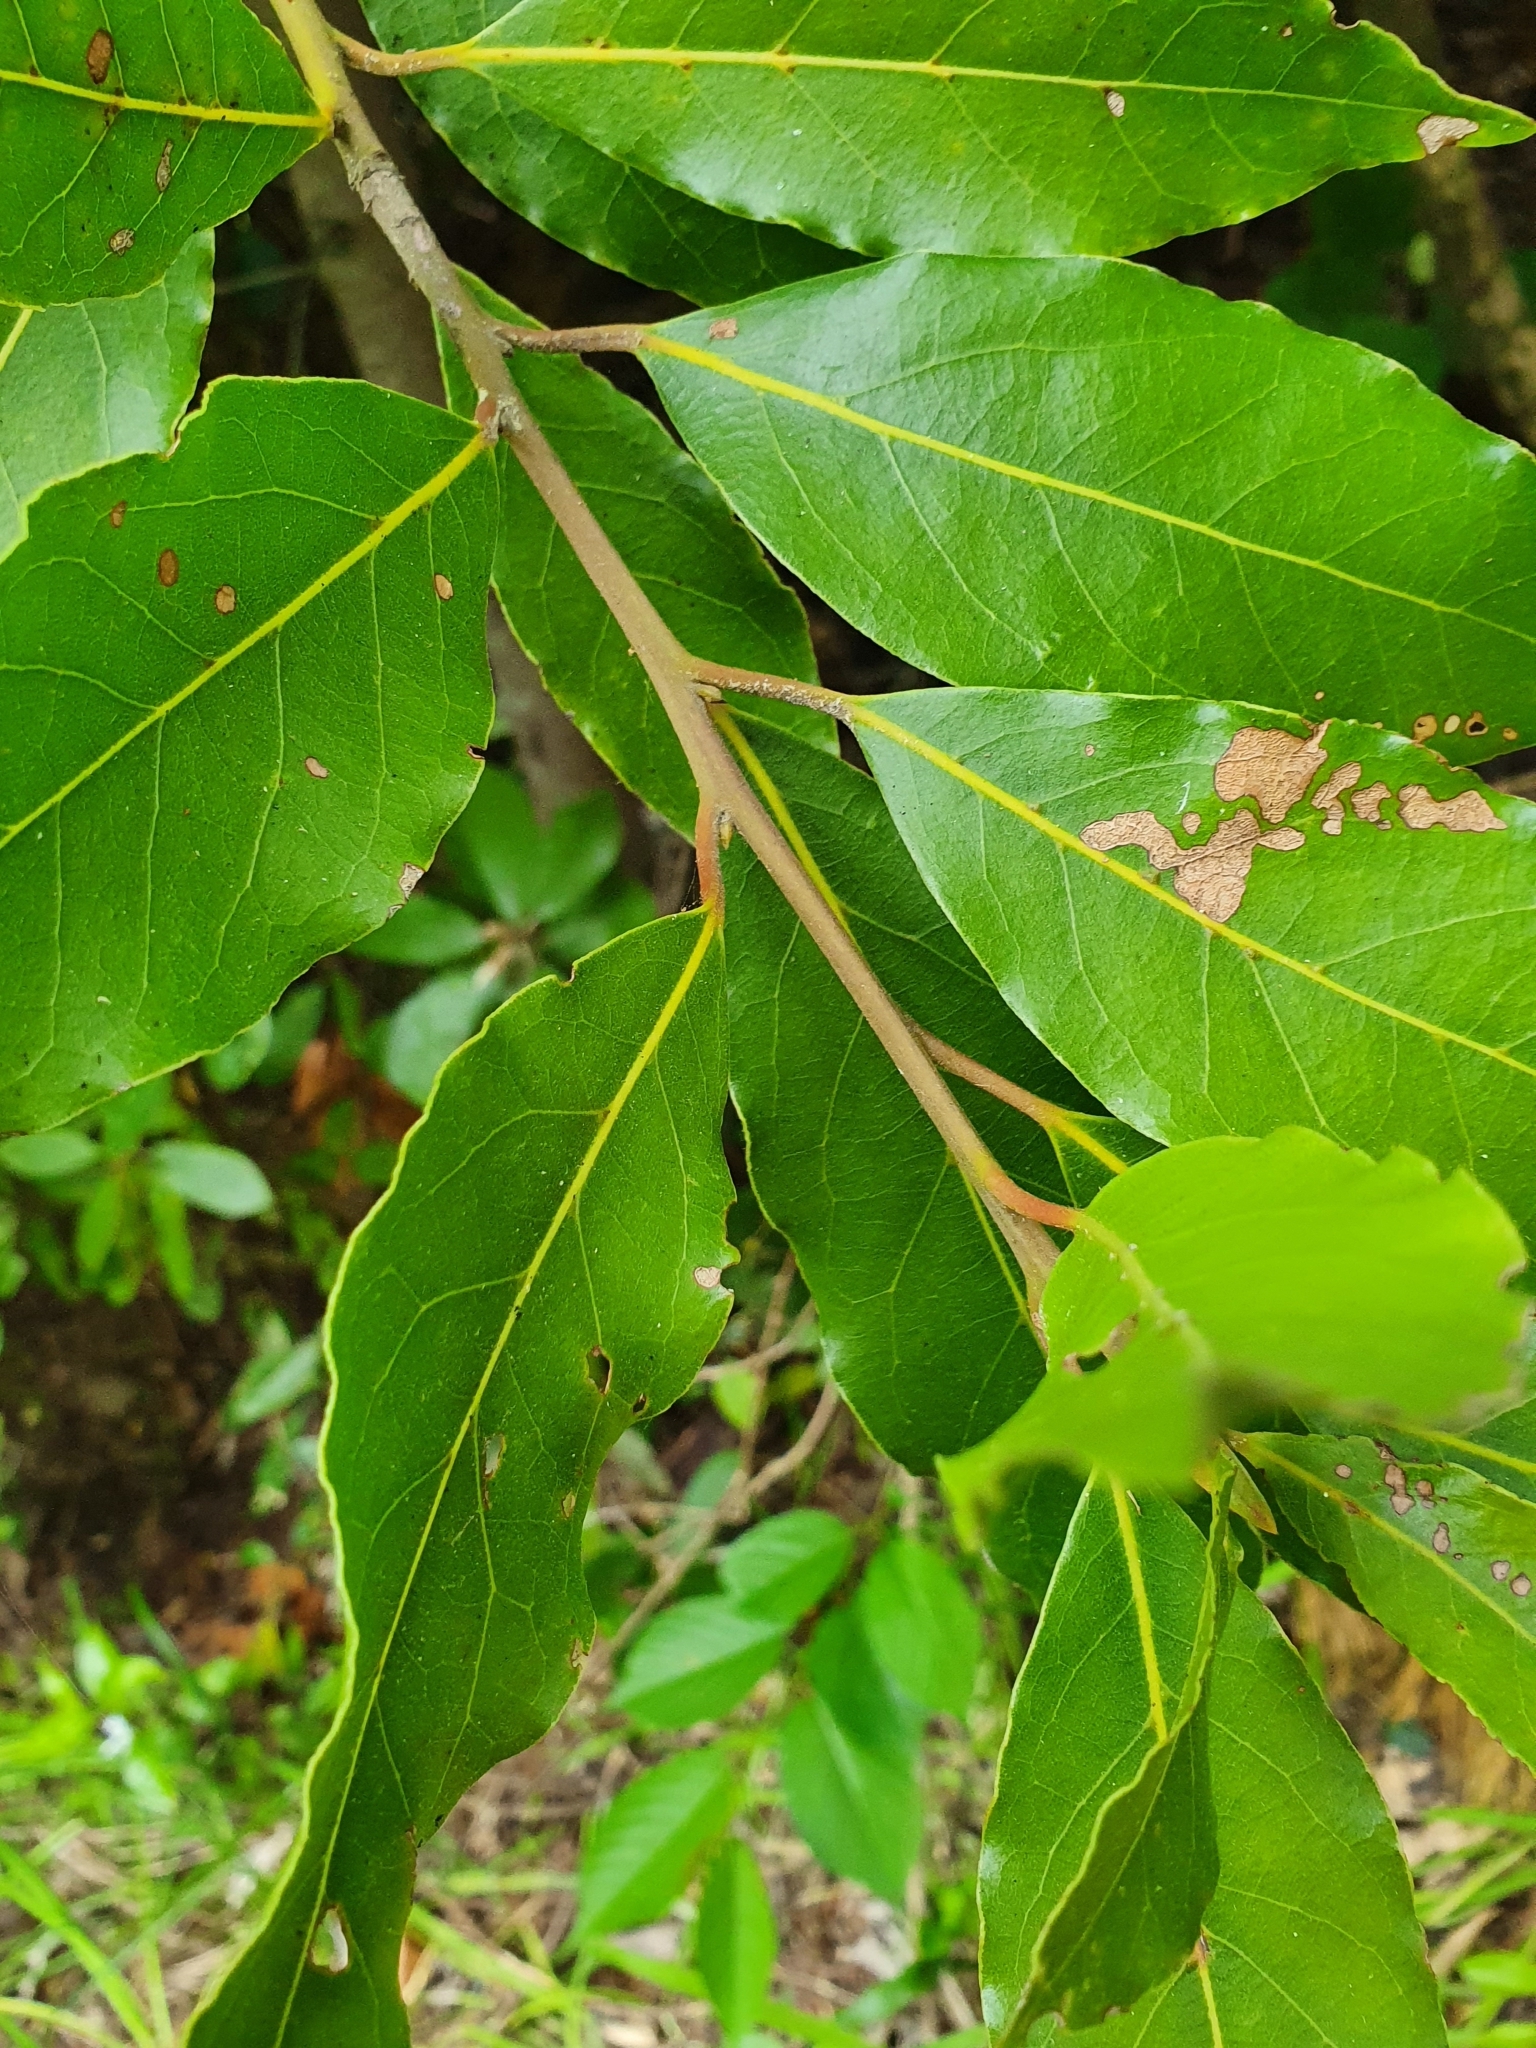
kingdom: Plantae
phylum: Tracheophyta
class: Magnoliopsida
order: Laurales
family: Lauraceae
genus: Laurus
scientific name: Laurus nobilis
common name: Bay
